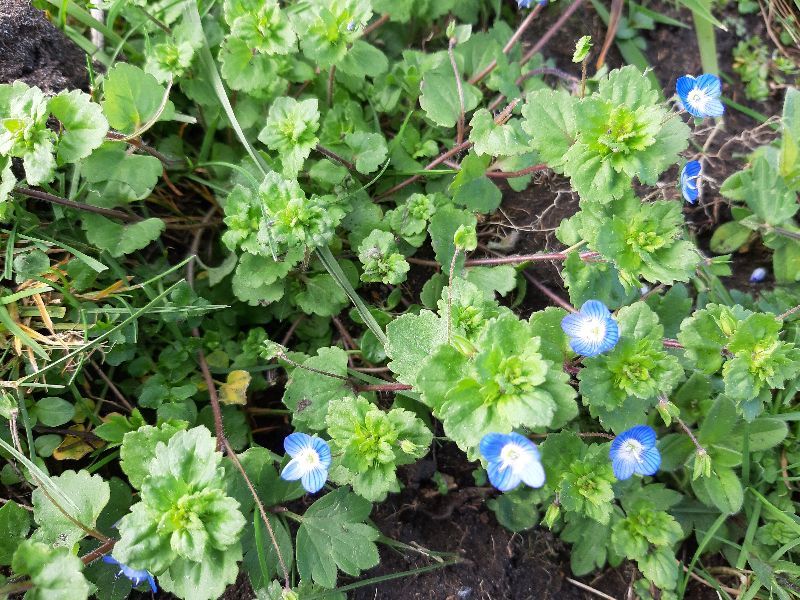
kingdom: Plantae
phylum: Tracheophyta
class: Magnoliopsida
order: Lamiales
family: Plantaginaceae
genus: Veronica
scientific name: Veronica persica
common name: Common field-speedwell
